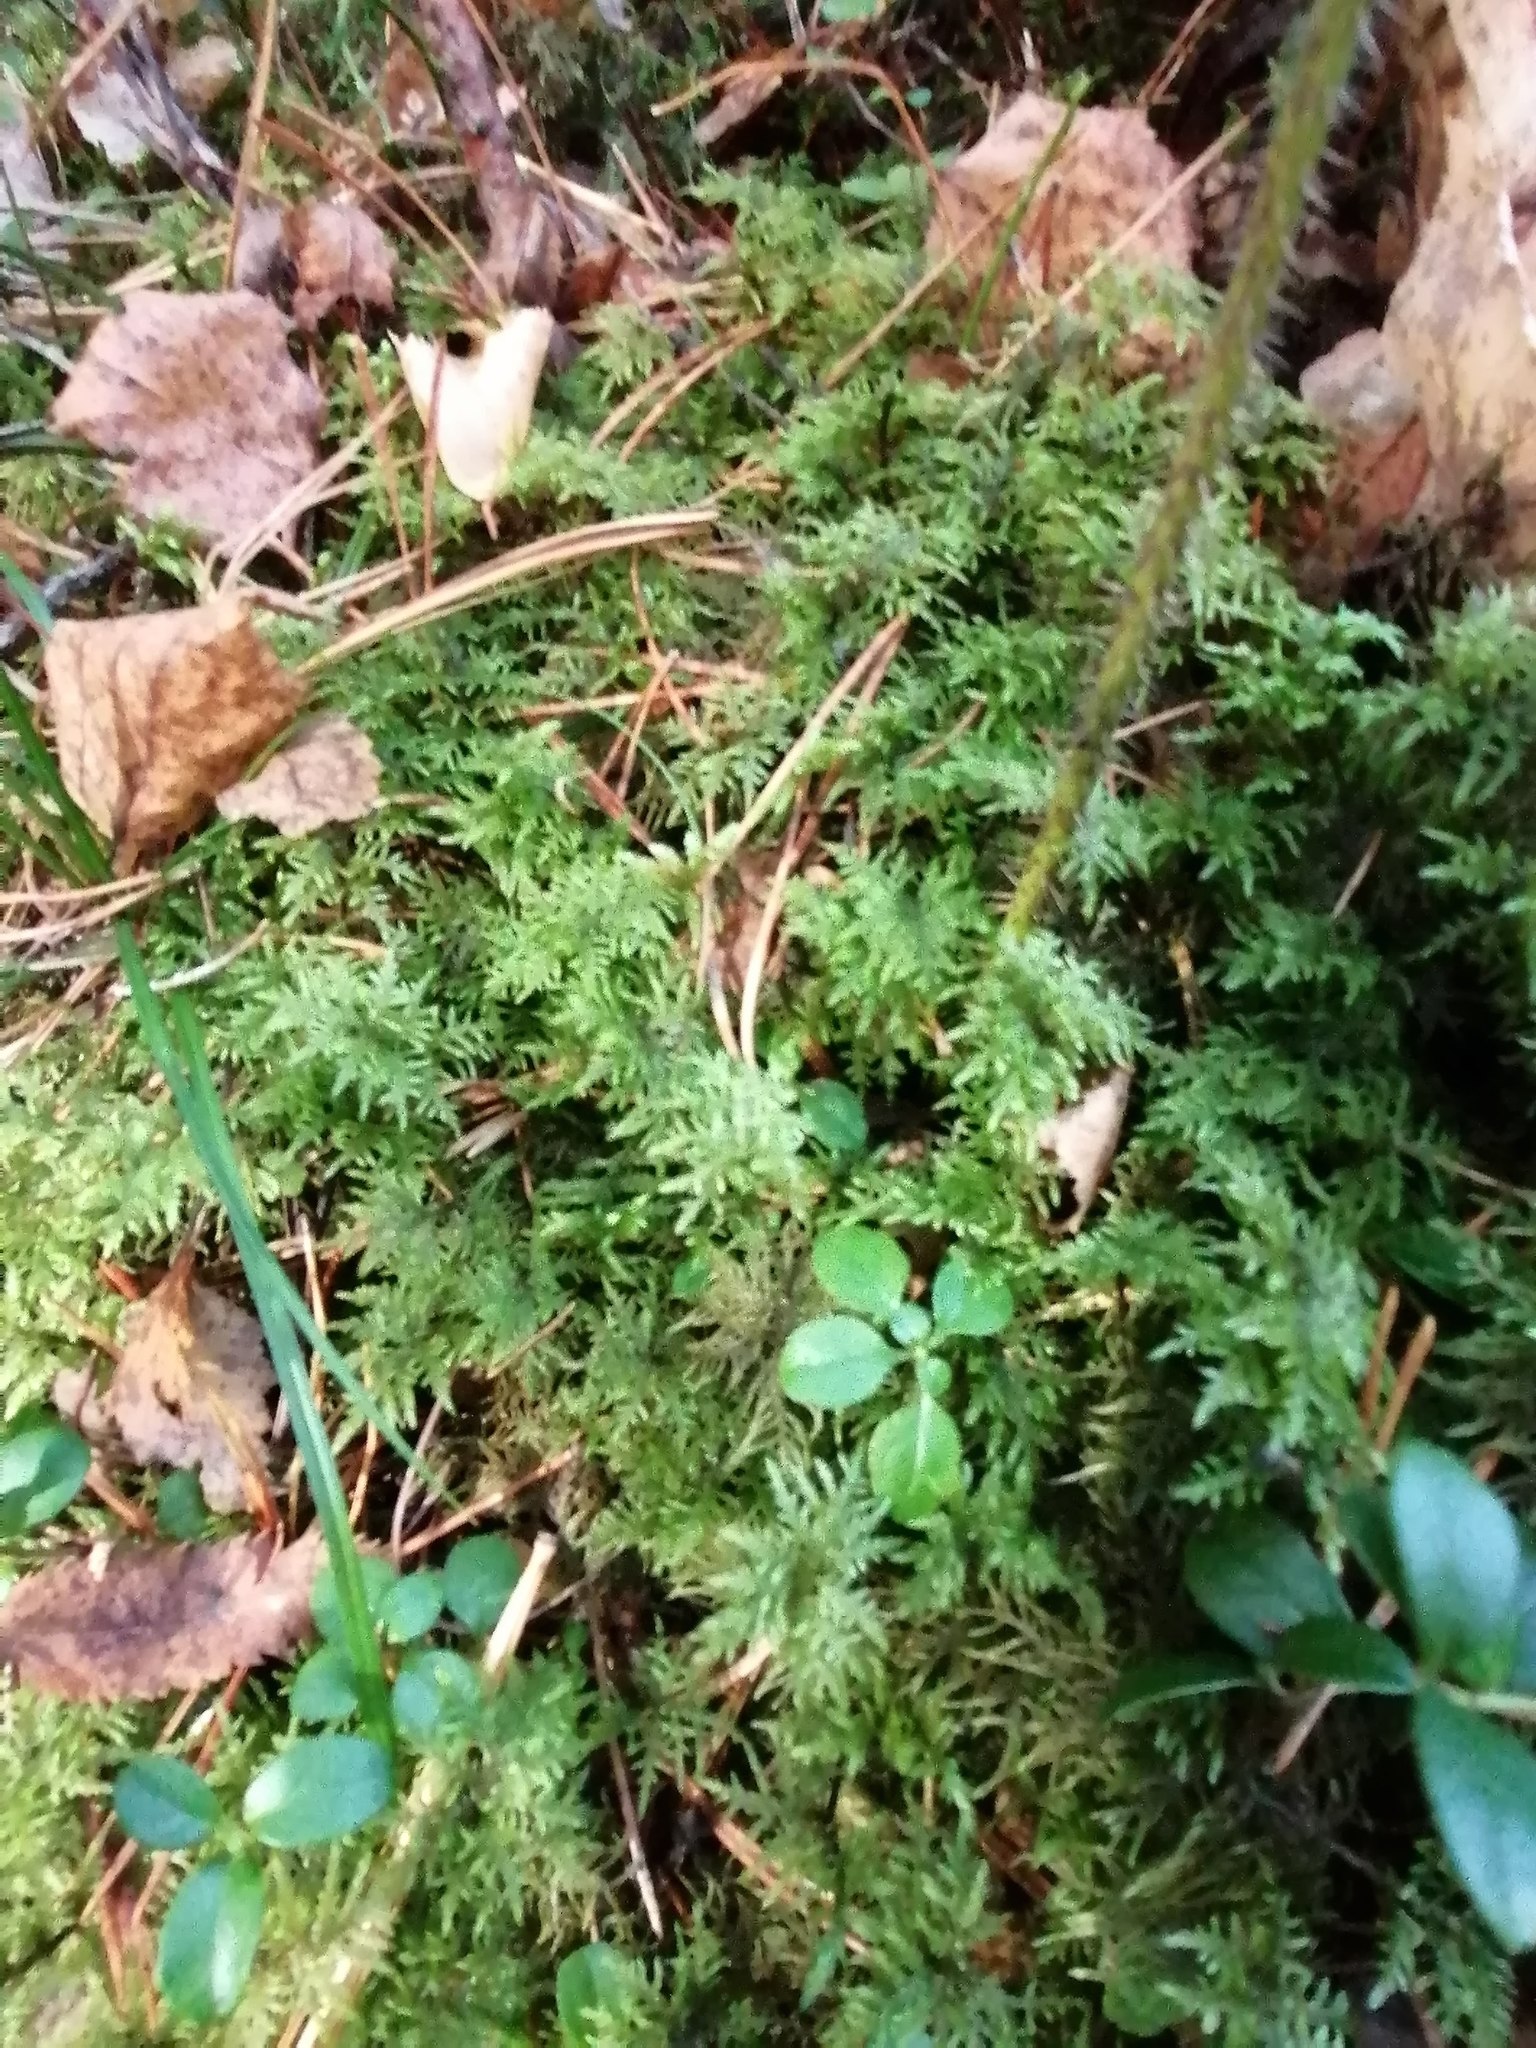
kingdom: Plantae
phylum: Bryophyta
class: Bryopsida
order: Hypnales
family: Hylocomiaceae
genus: Hylocomium
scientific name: Hylocomium splendens
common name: Stairstep moss
